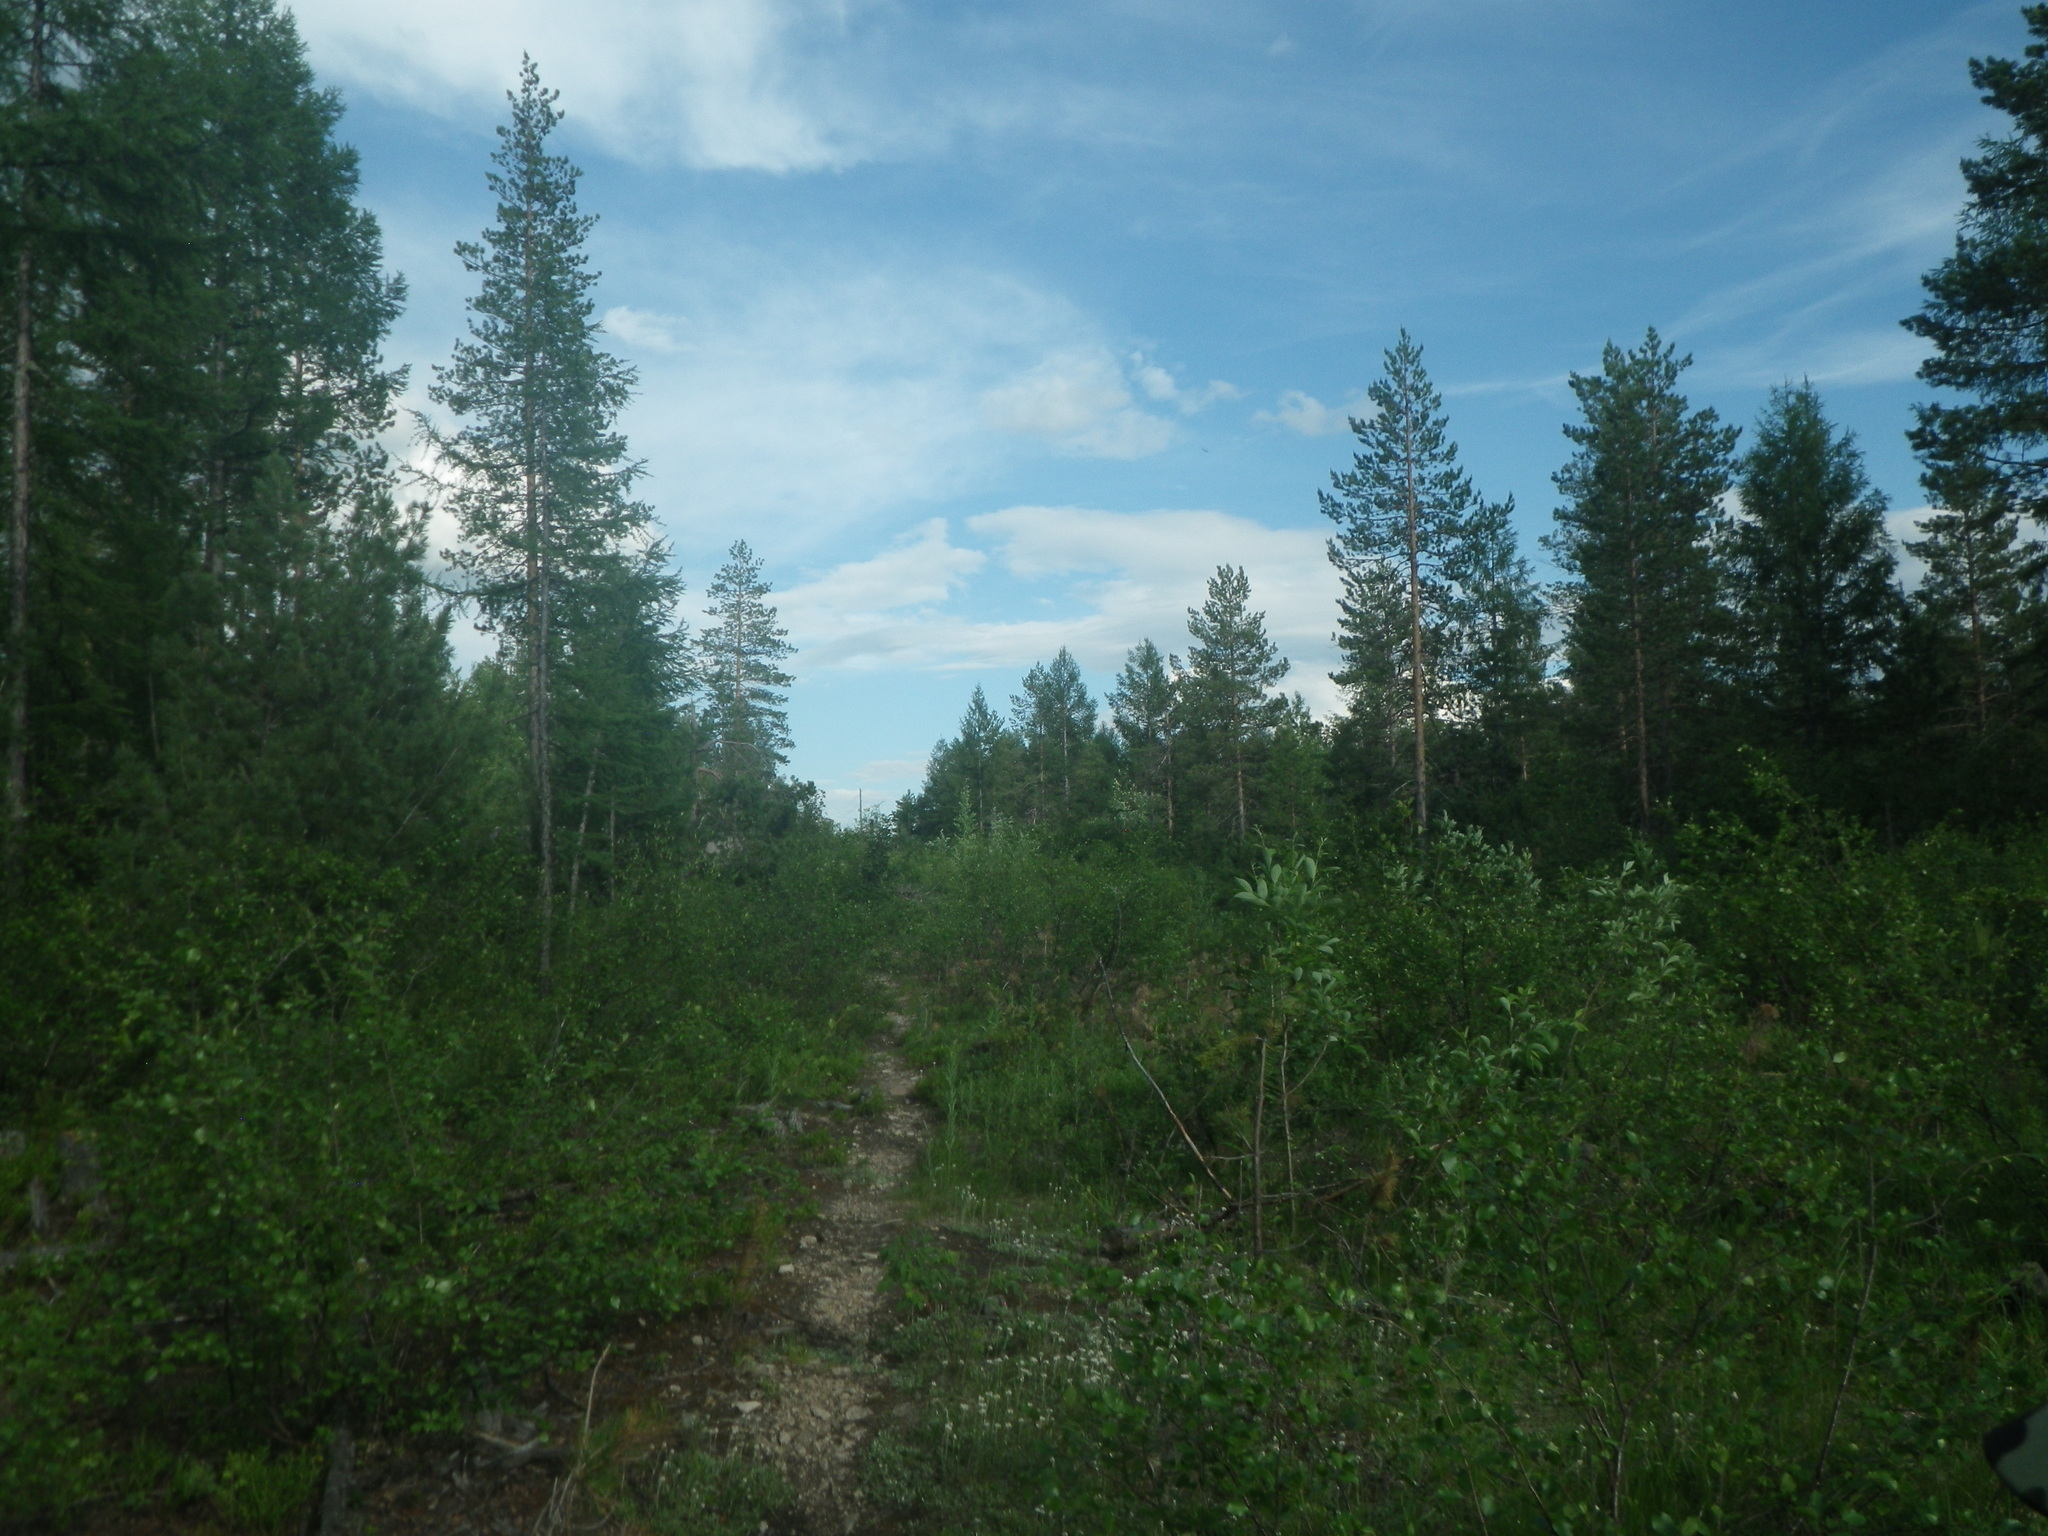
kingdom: Plantae
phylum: Tracheophyta
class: Pinopsida
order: Pinales
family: Pinaceae
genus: Pinus
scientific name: Pinus sylvestris
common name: Scots pine
